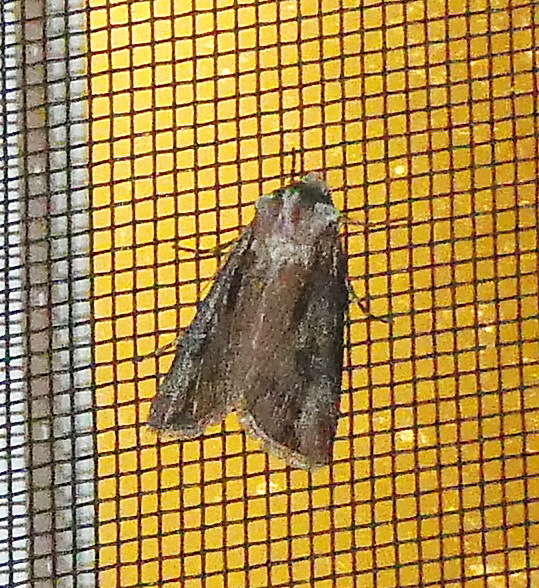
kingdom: Animalia
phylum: Arthropoda
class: Insecta
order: Lepidoptera
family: Noctuidae
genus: Agrotis
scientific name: Agrotis venerabilis
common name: Venerable dart
